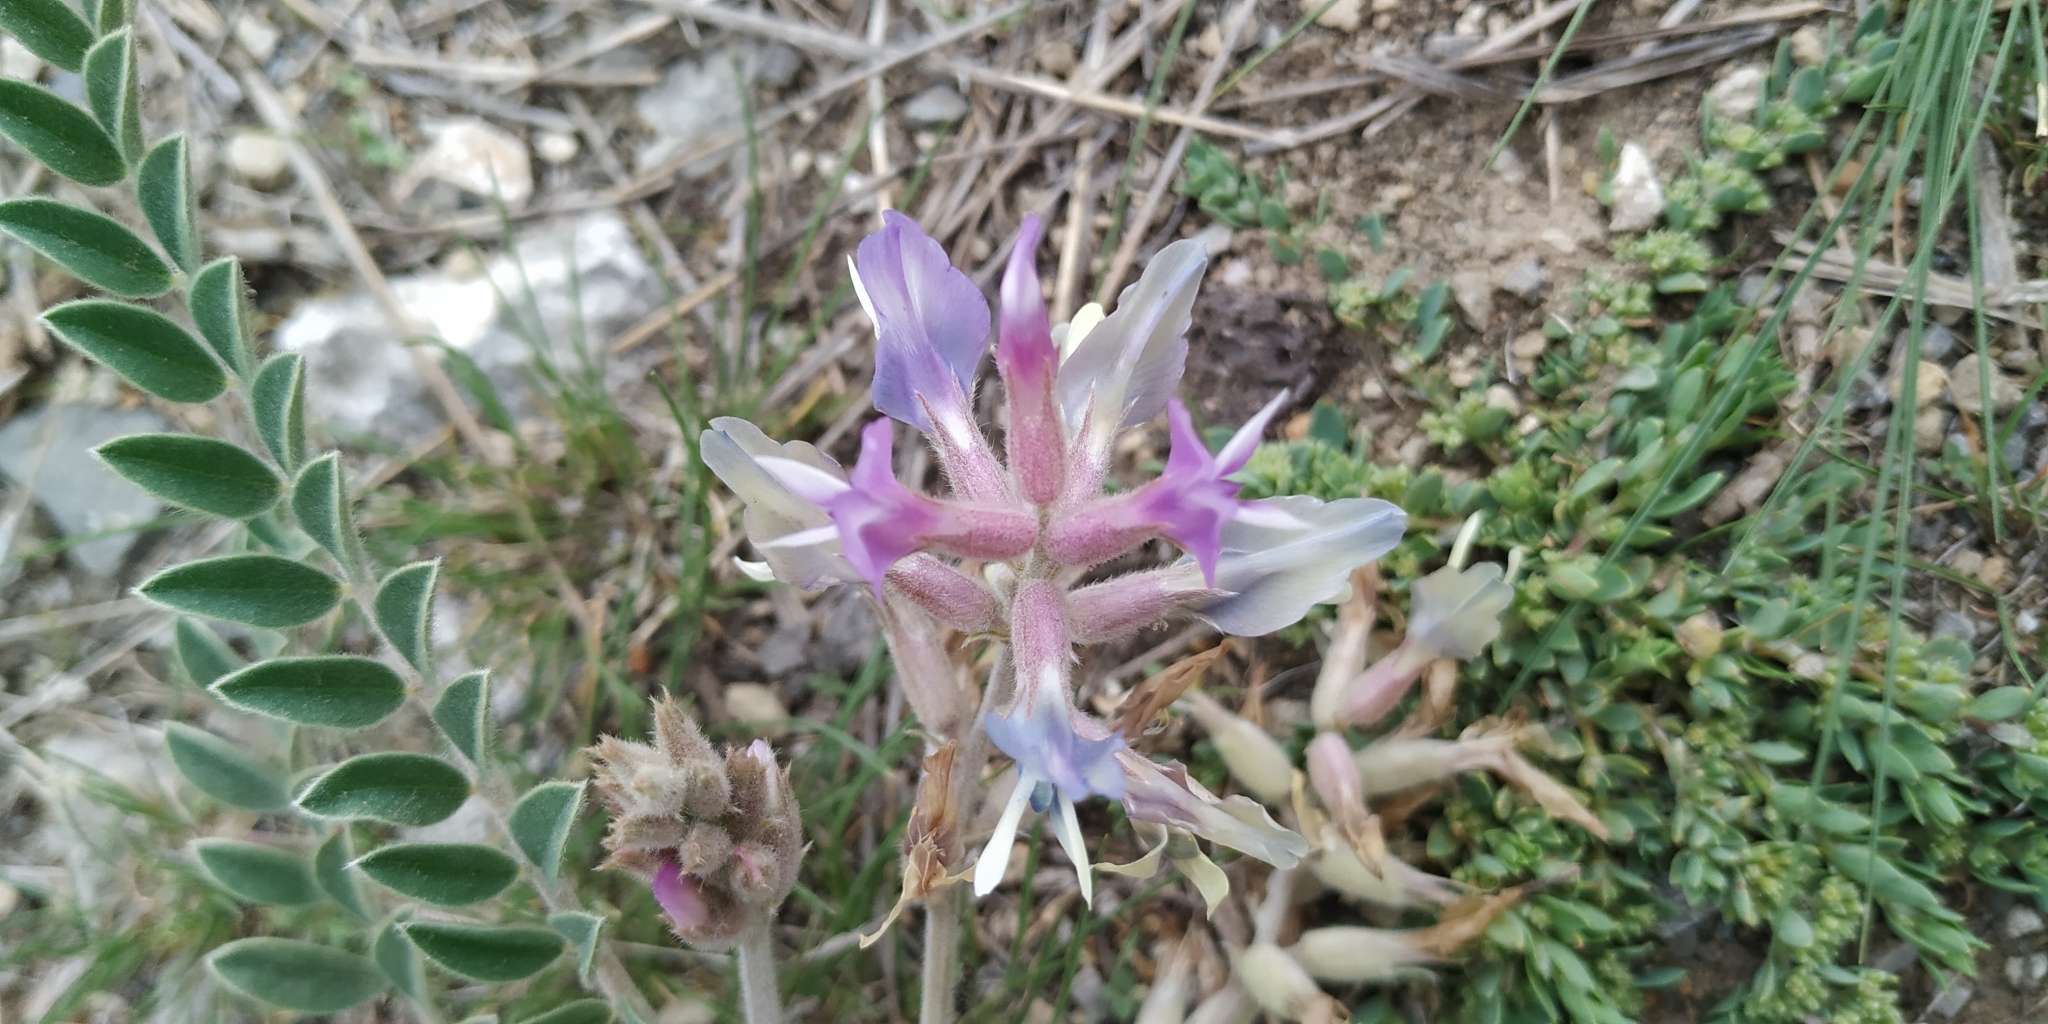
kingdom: Plantae
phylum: Tracheophyta
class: Magnoliopsida
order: Fabales
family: Fabaceae
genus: Astragalus
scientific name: Astragalus mollissimus
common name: Woolly locoweed
